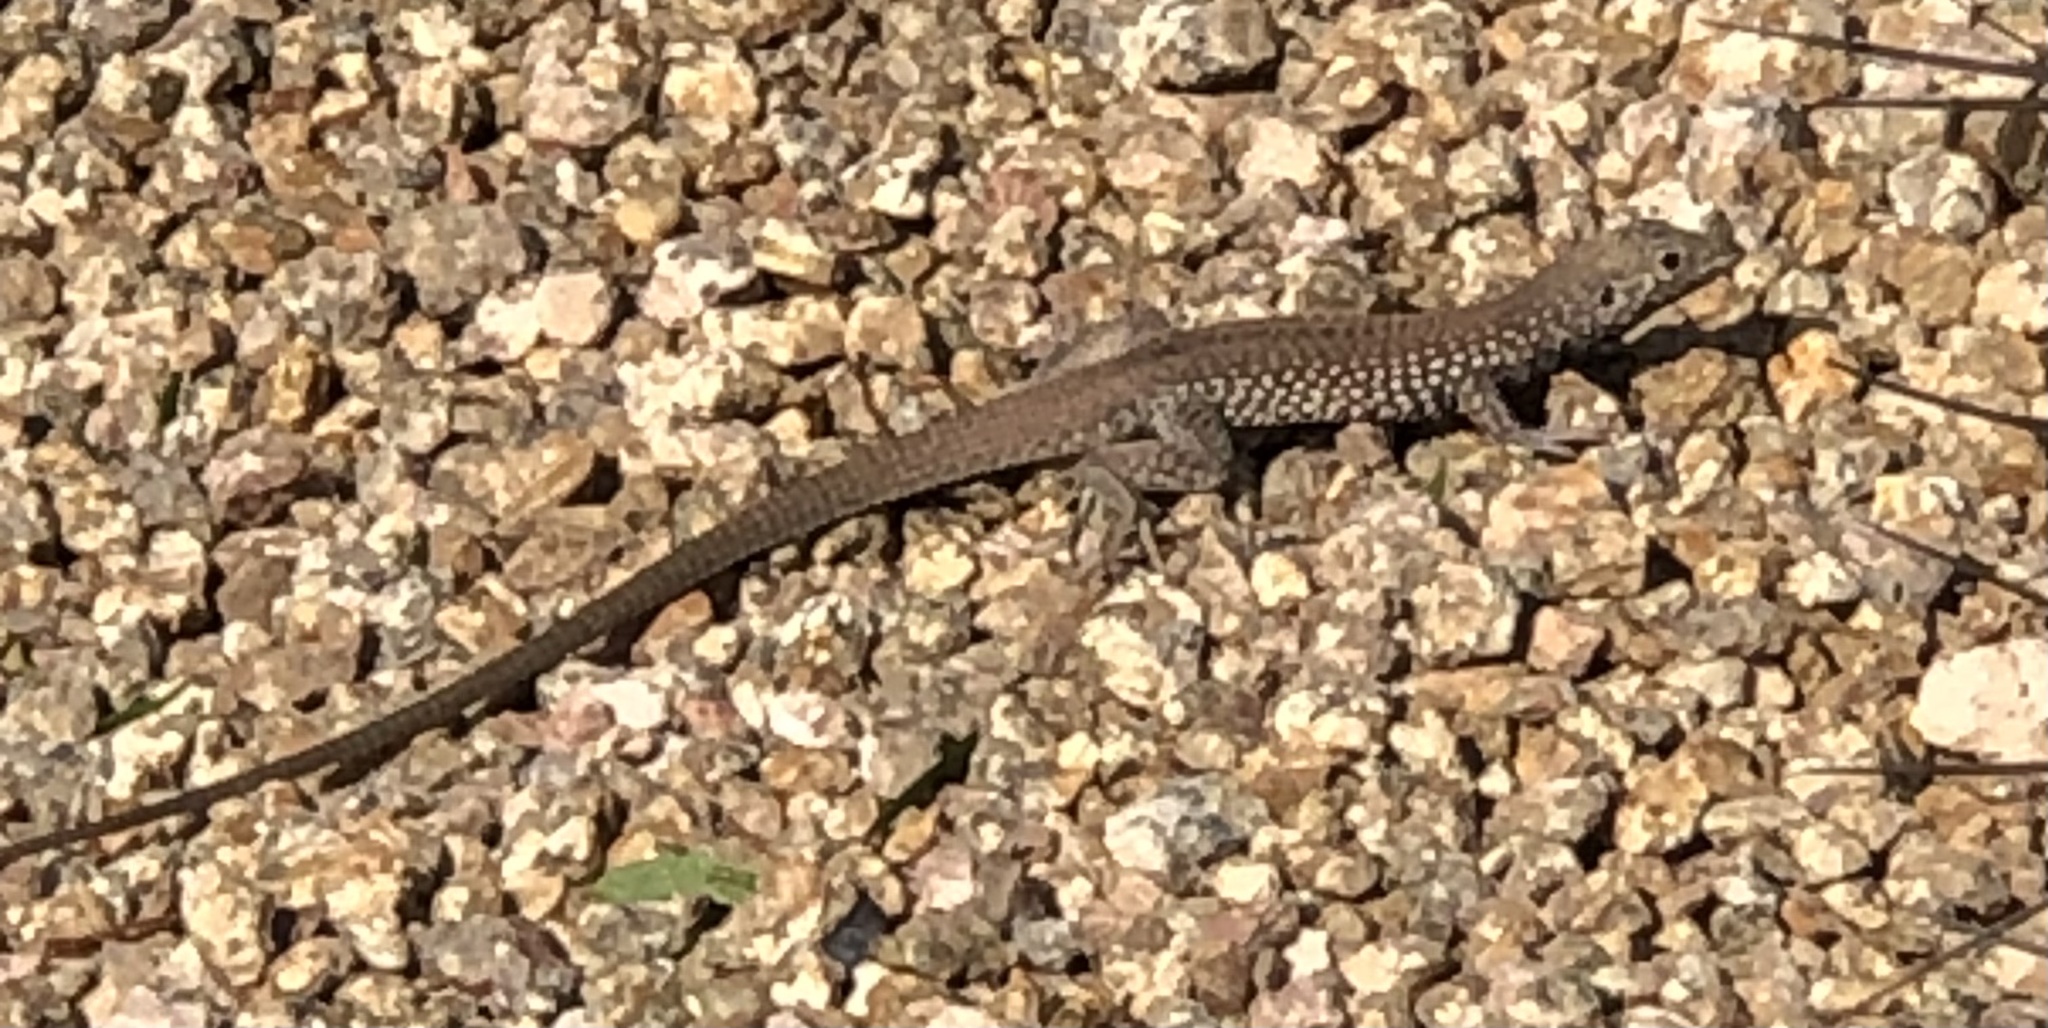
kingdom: Animalia
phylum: Chordata
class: Squamata
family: Teiidae
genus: Aspidoscelis
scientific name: Aspidoscelis tigris
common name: Tiger whiptail
